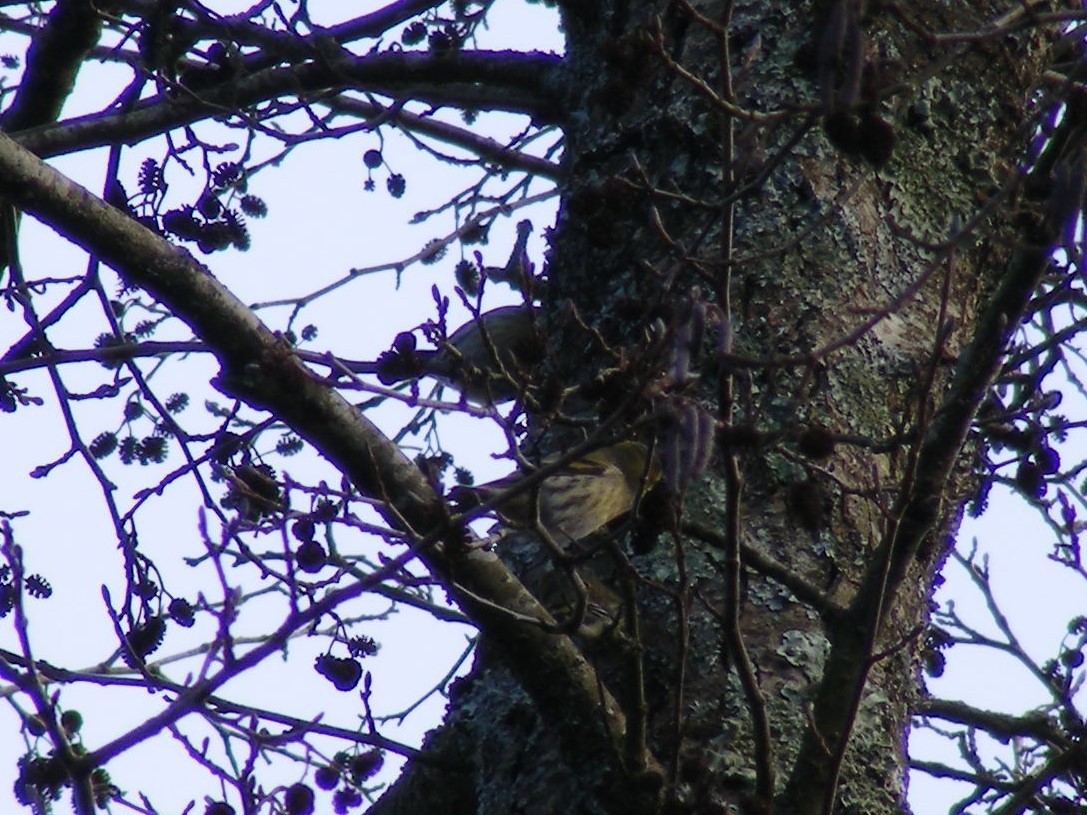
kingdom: Animalia
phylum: Chordata
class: Aves
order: Passeriformes
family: Fringillidae
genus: Spinus
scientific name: Spinus spinus
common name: Eurasian siskin
